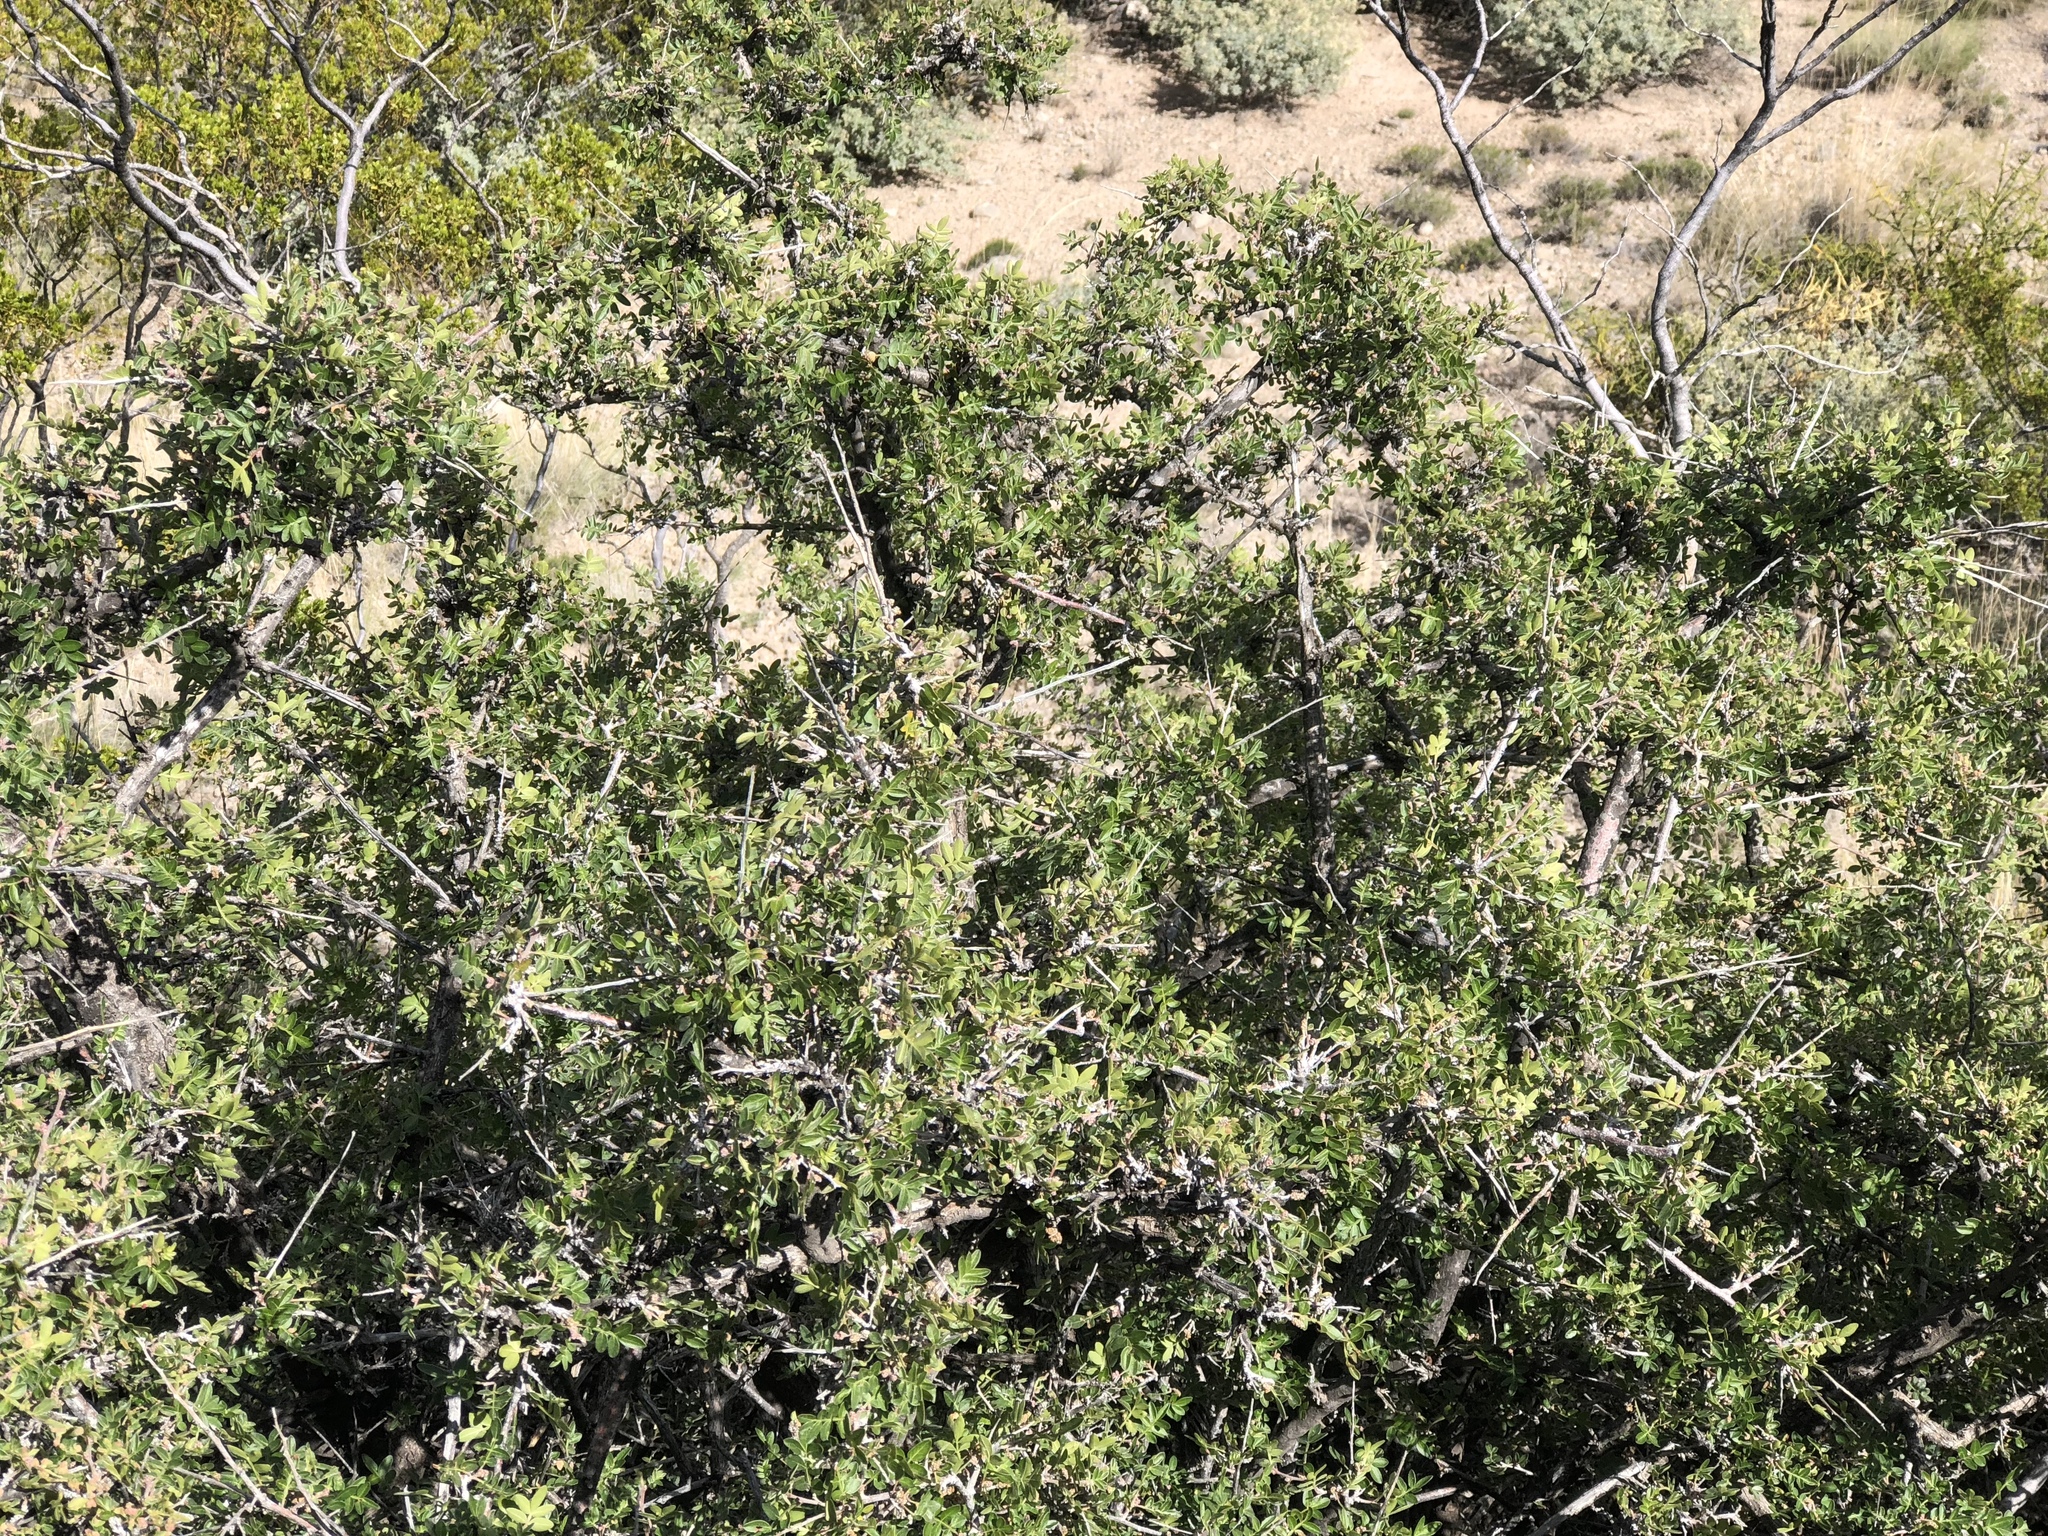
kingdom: Plantae
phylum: Tracheophyta
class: Magnoliopsida
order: Sapindales
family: Anacardiaceae
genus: Rhus
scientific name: Rhus microphylla
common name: Desert sumac
